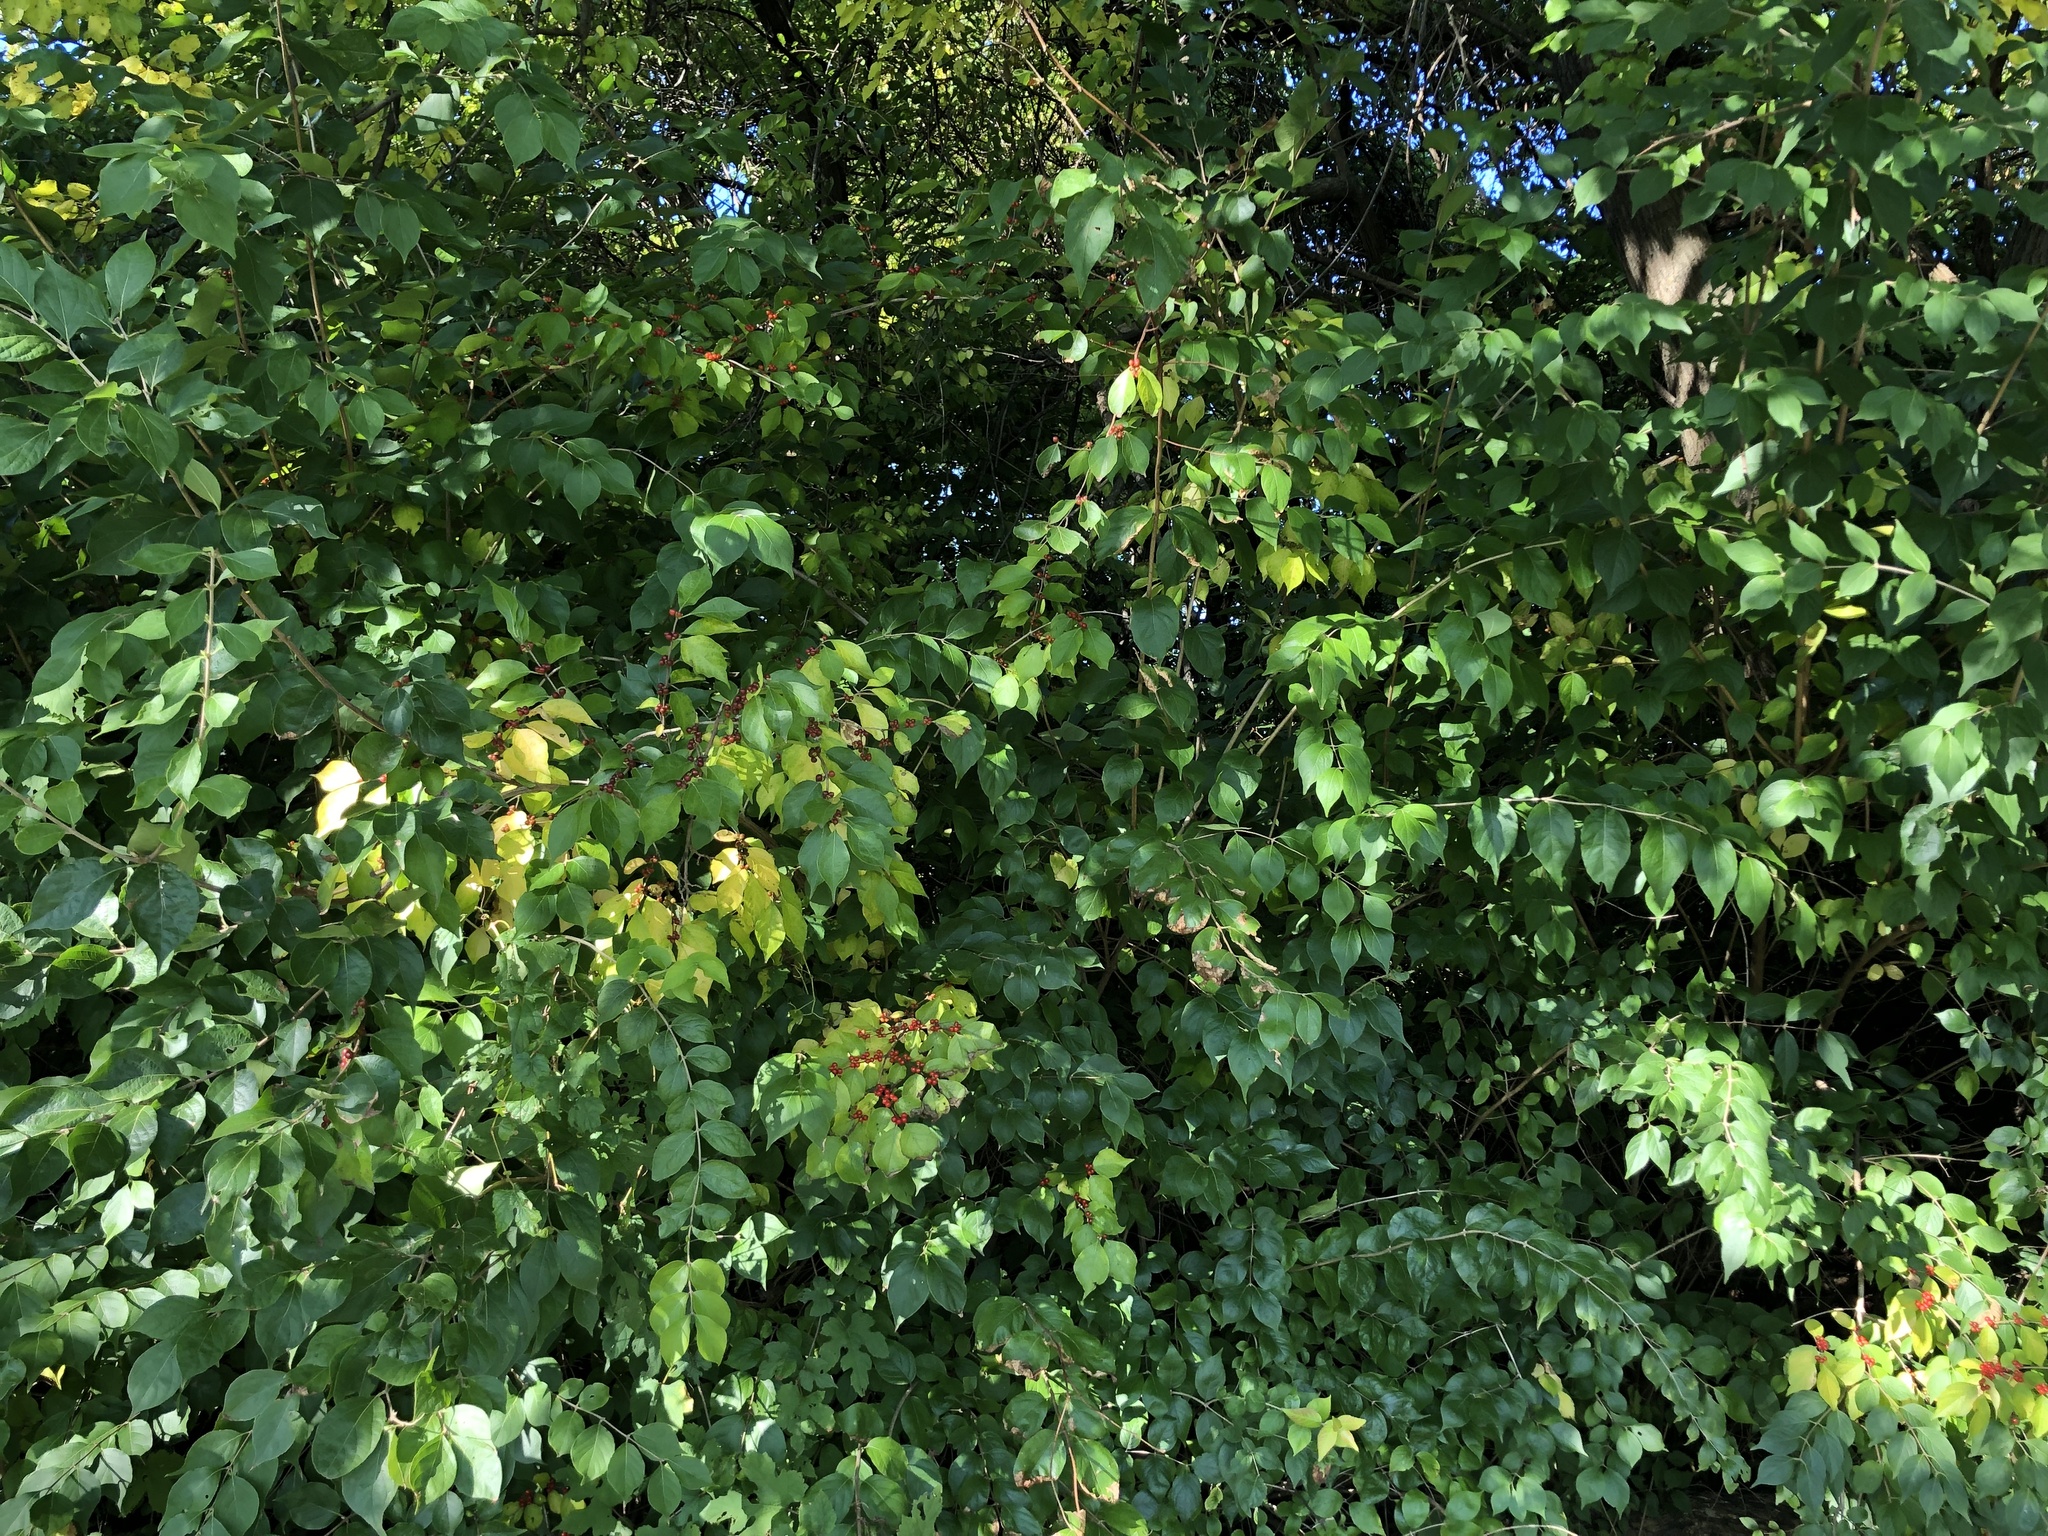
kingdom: Plantae
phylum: Tracheophyta
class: Magnoliopsida
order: Dipsacales
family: Caprifoliaceae
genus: Lonicera
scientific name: Lonicera maackii
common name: Amur honeysuckle
